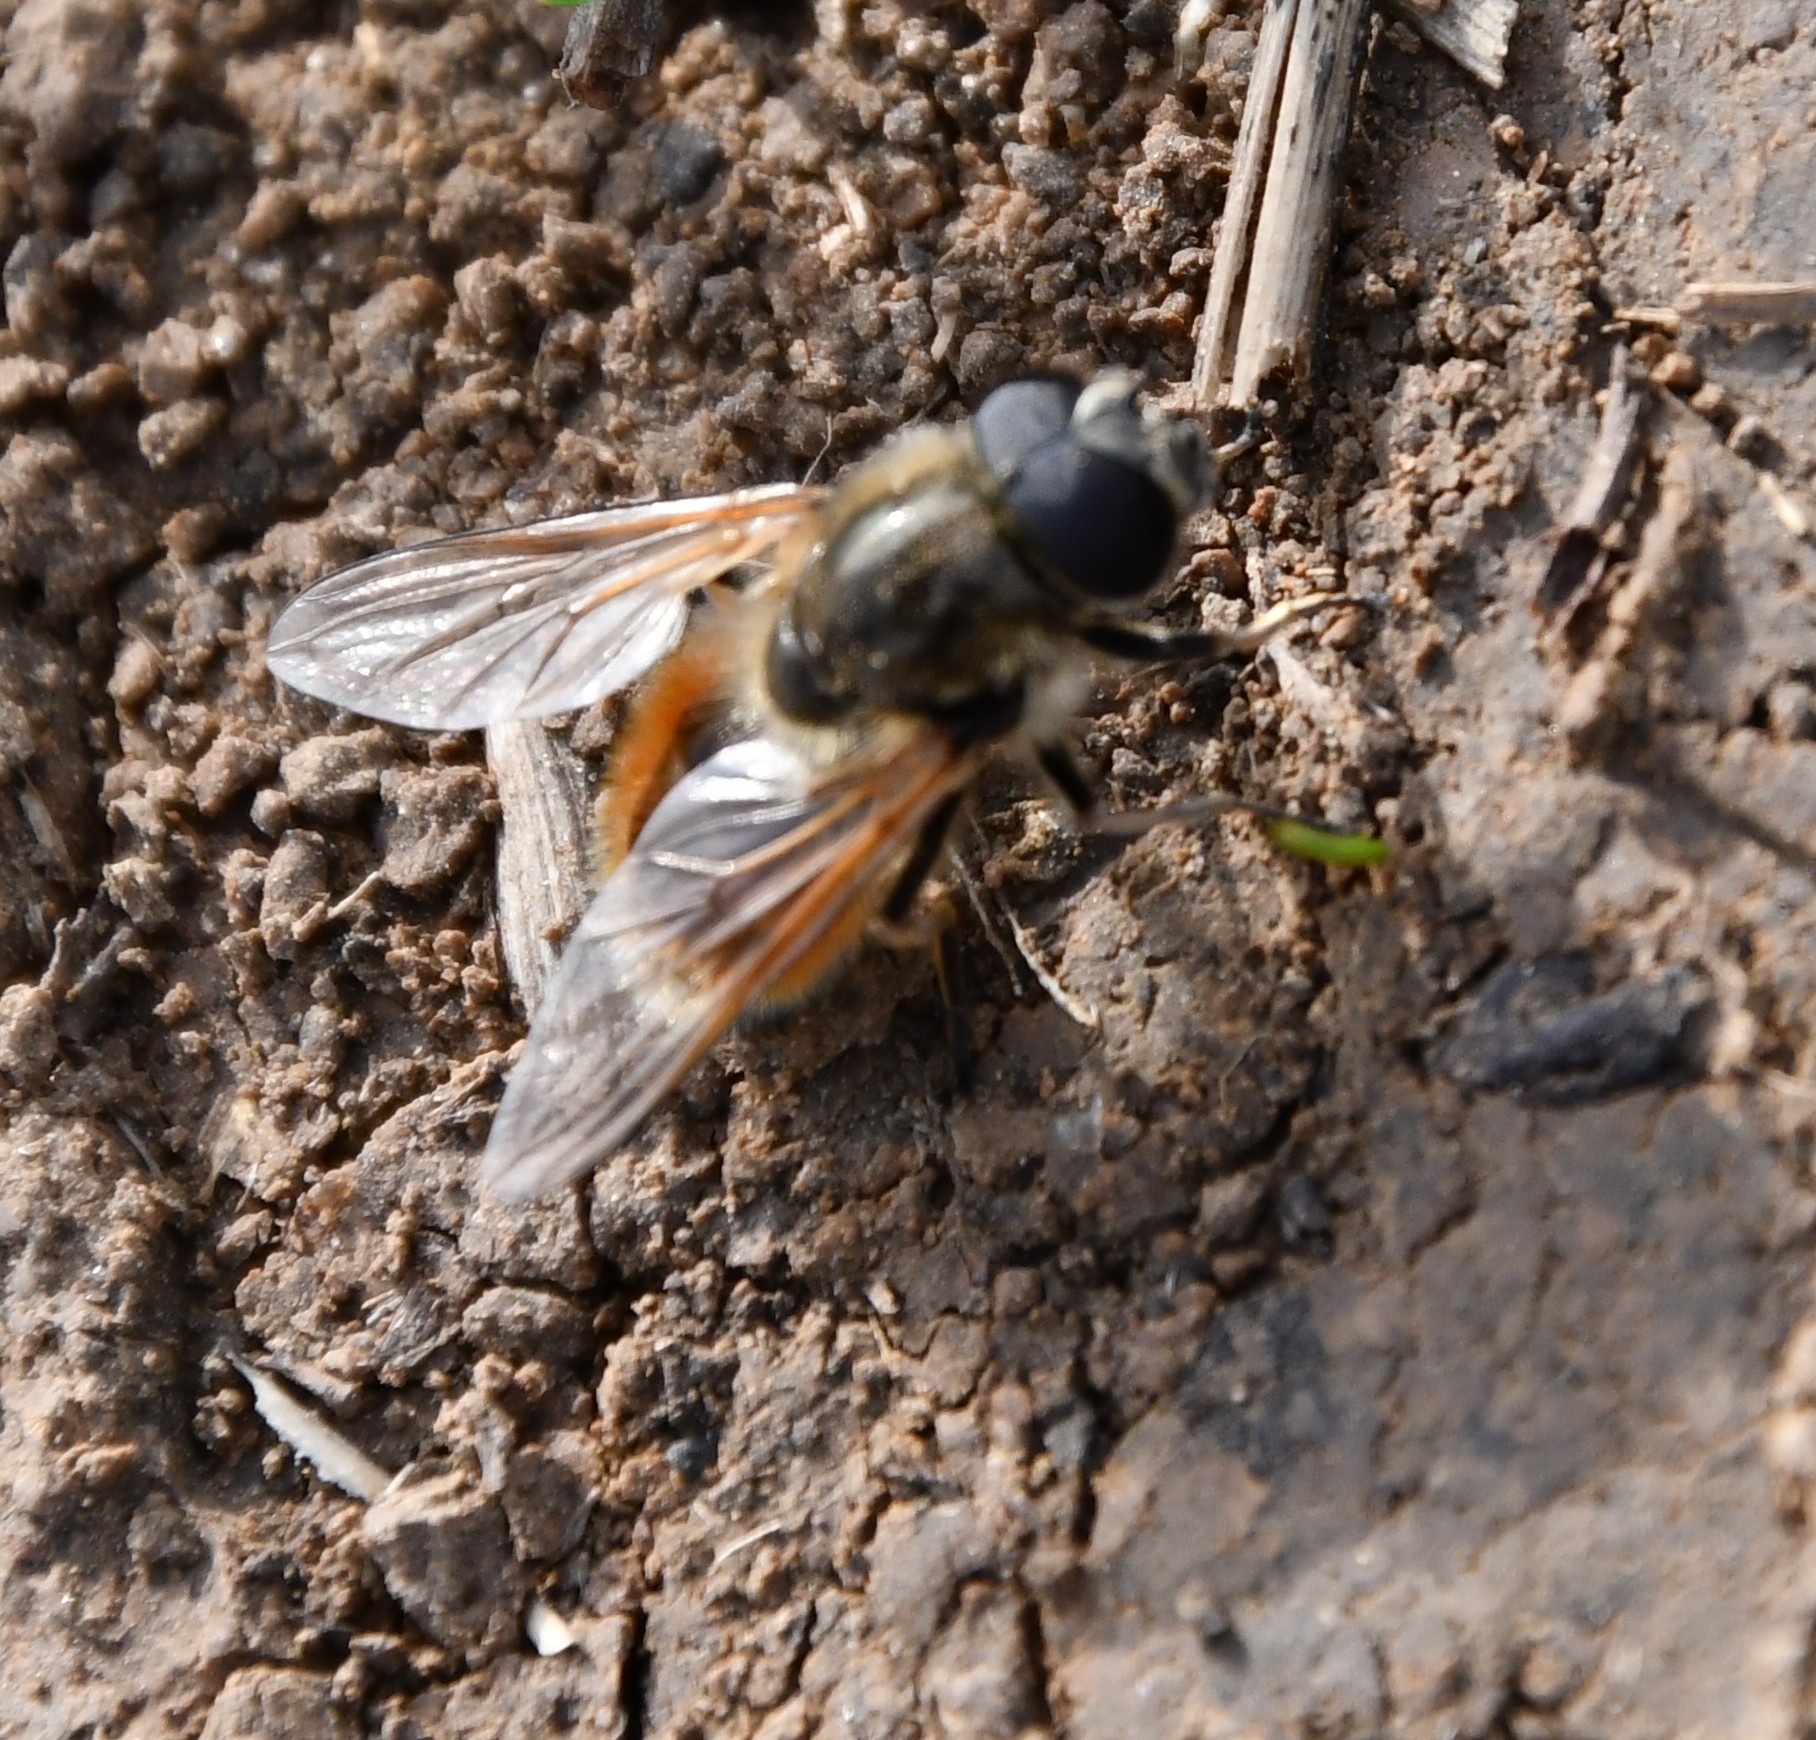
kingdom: Animalia
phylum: Arthropoda
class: Insecta
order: Diptera
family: Syrphidae
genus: Cheilosia
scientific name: Cheilosia corydon
